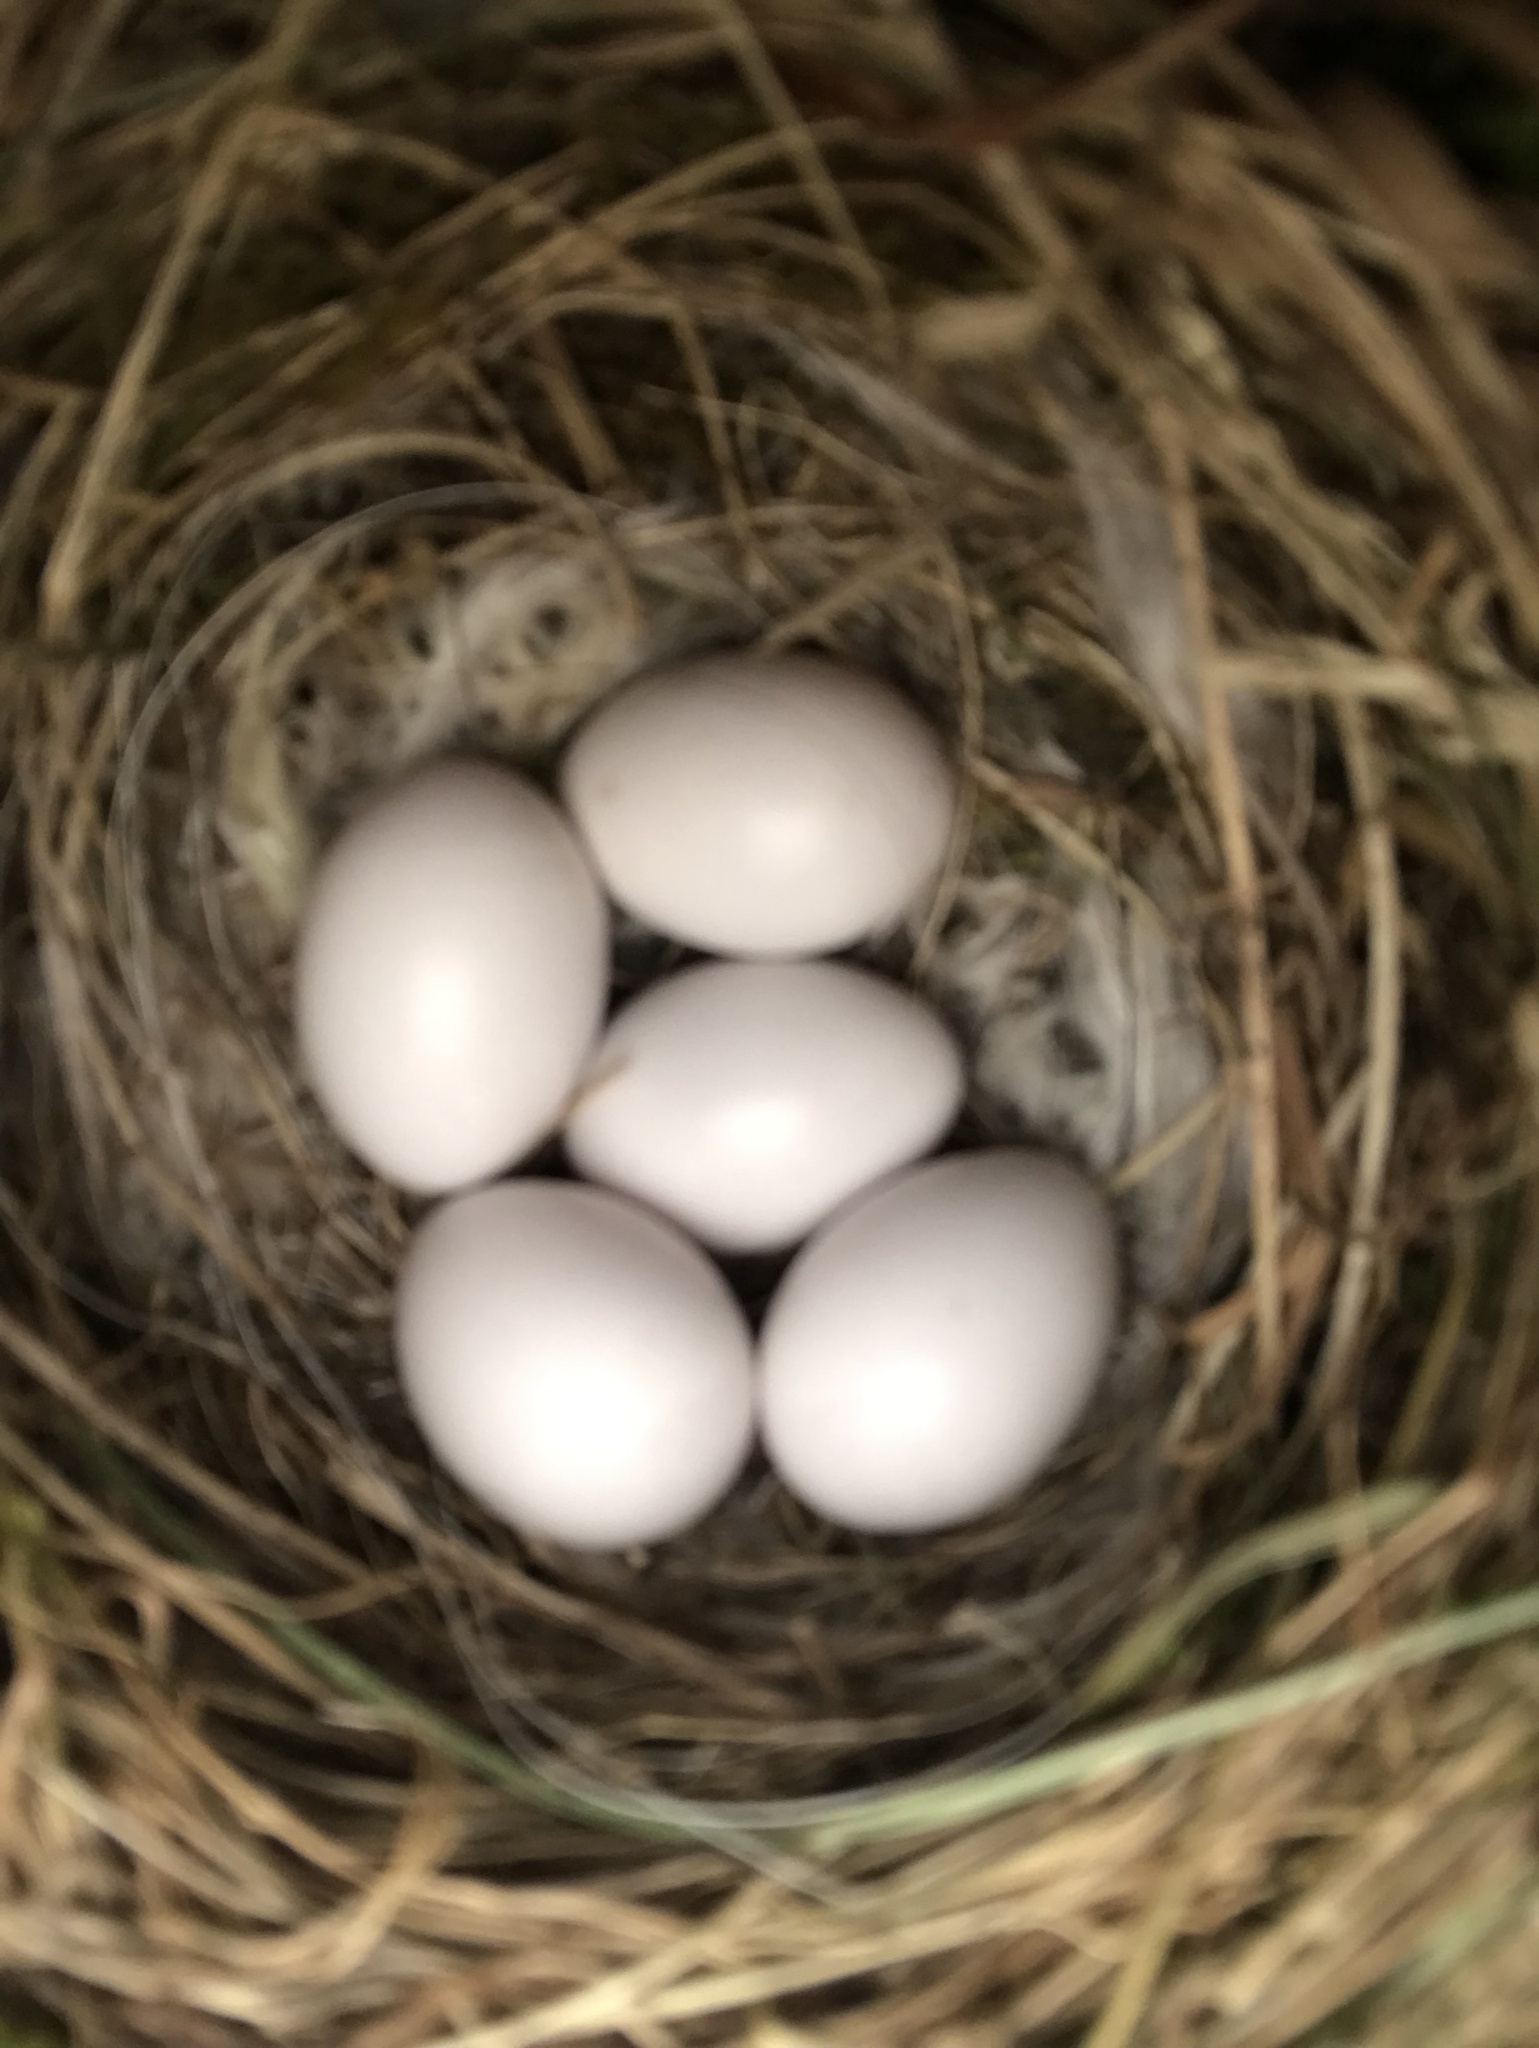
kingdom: Animalia
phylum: Chordata
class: Aves
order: Passeriformes
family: Muscicapidae
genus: Phoenicurus
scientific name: Phoenicurus ochruros
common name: Black redstart
